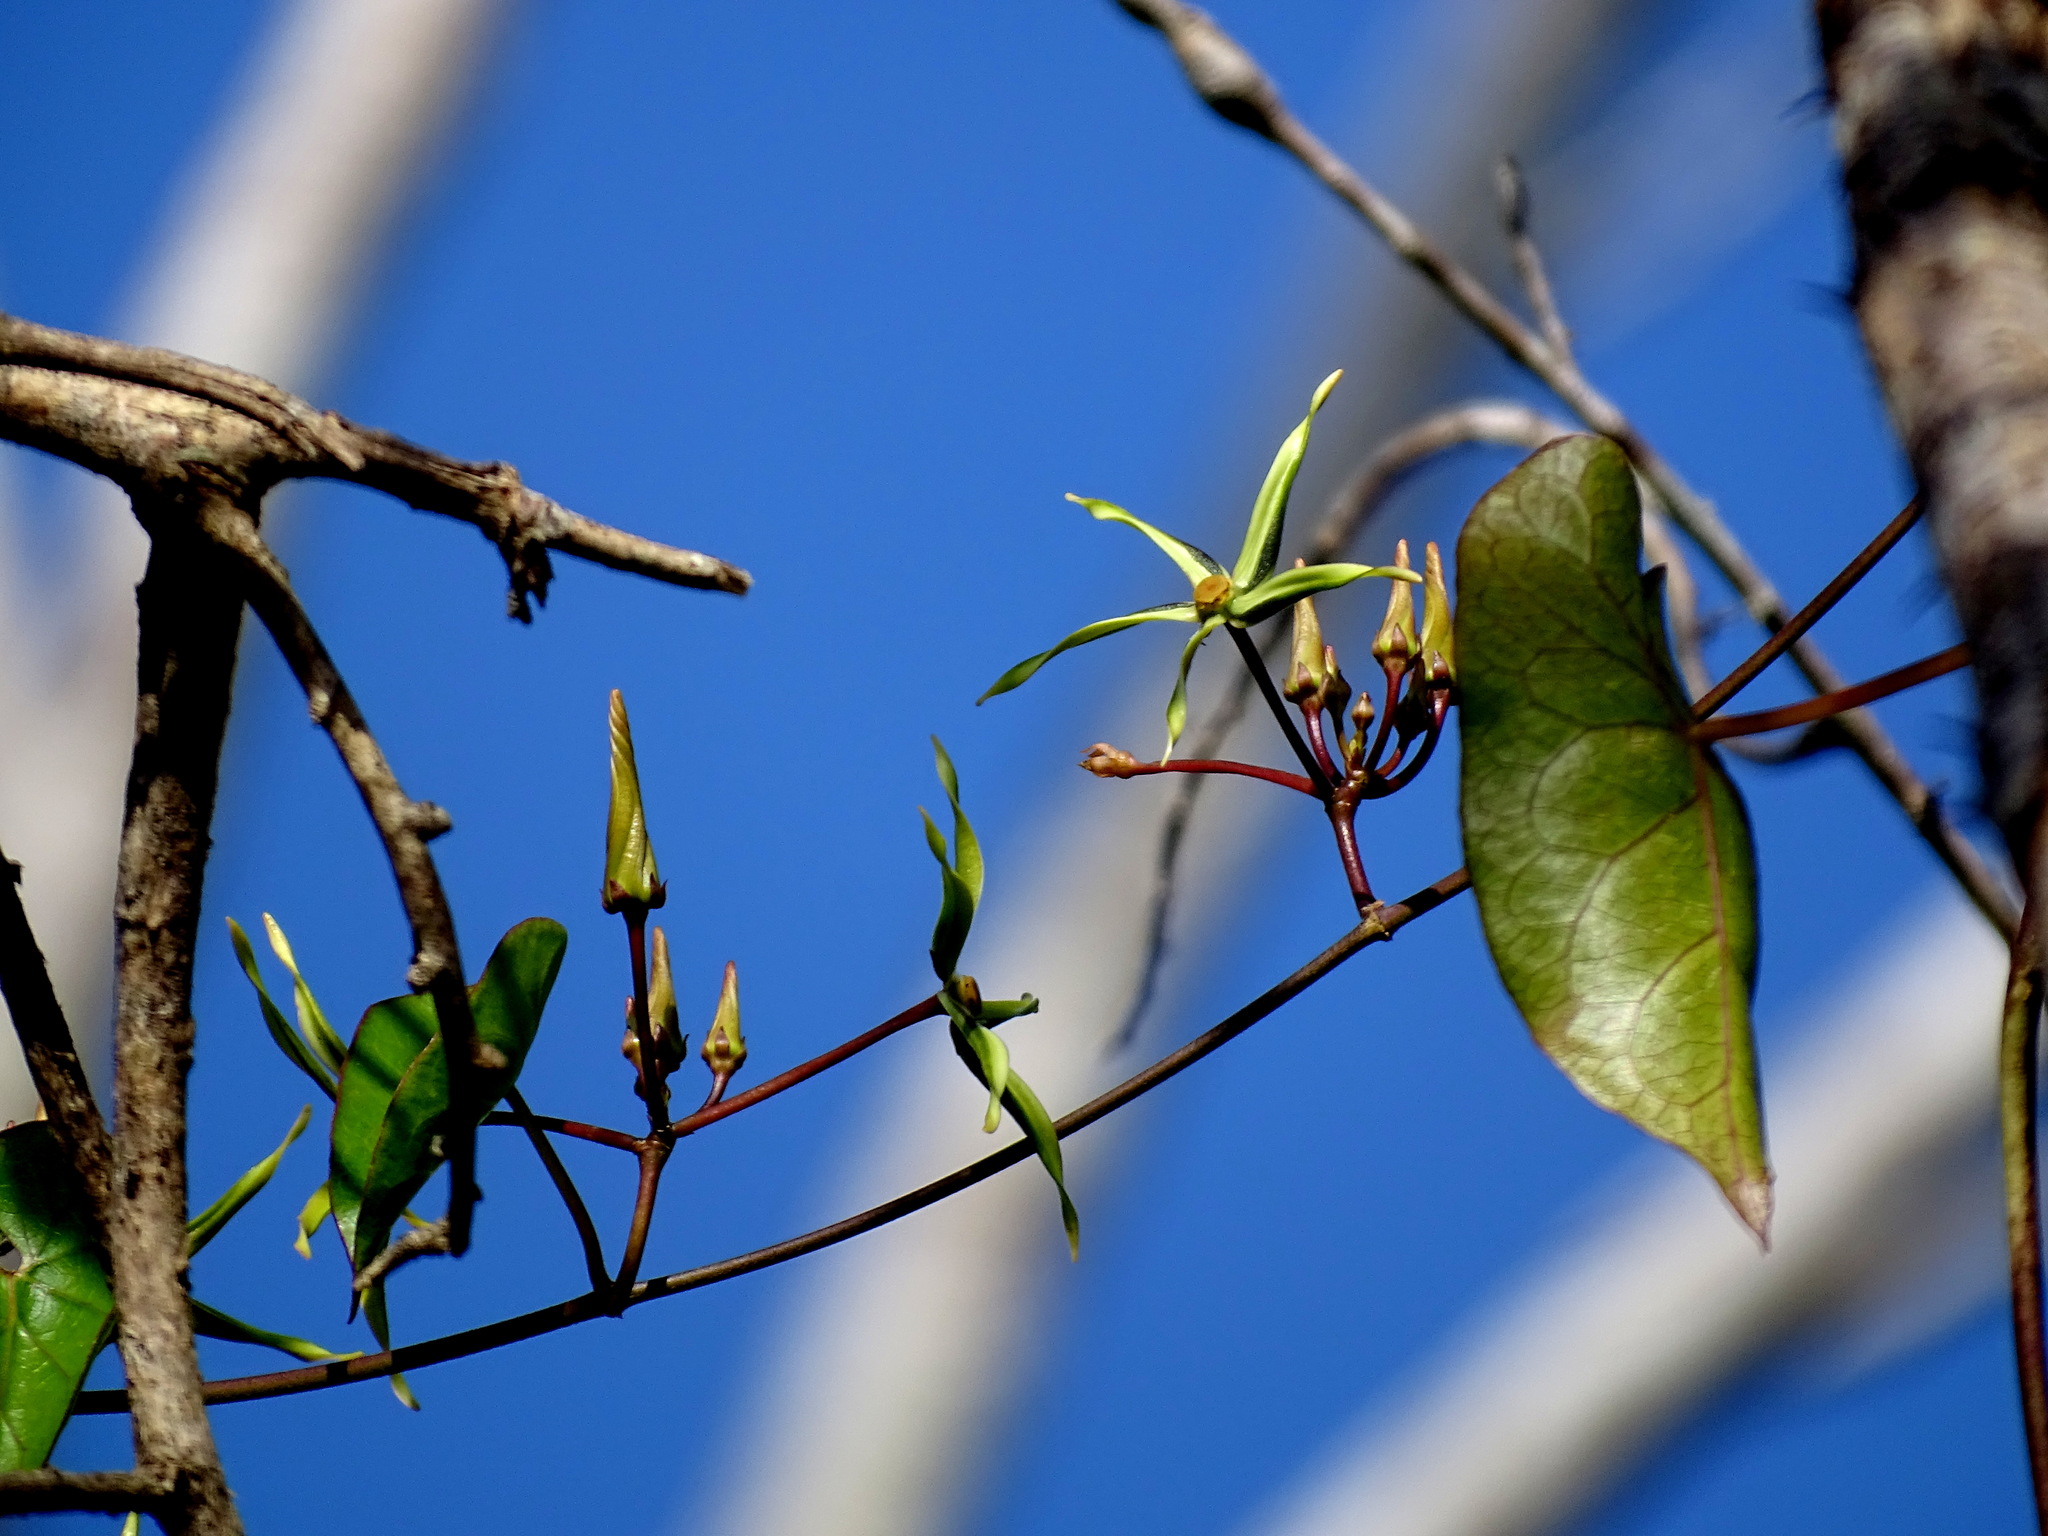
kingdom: Plantae
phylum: Tracheophyta
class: Magnoliopsida
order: Gentianales
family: Apocynaceae
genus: Gonolobus
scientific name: Gonolobus cteniophorus
